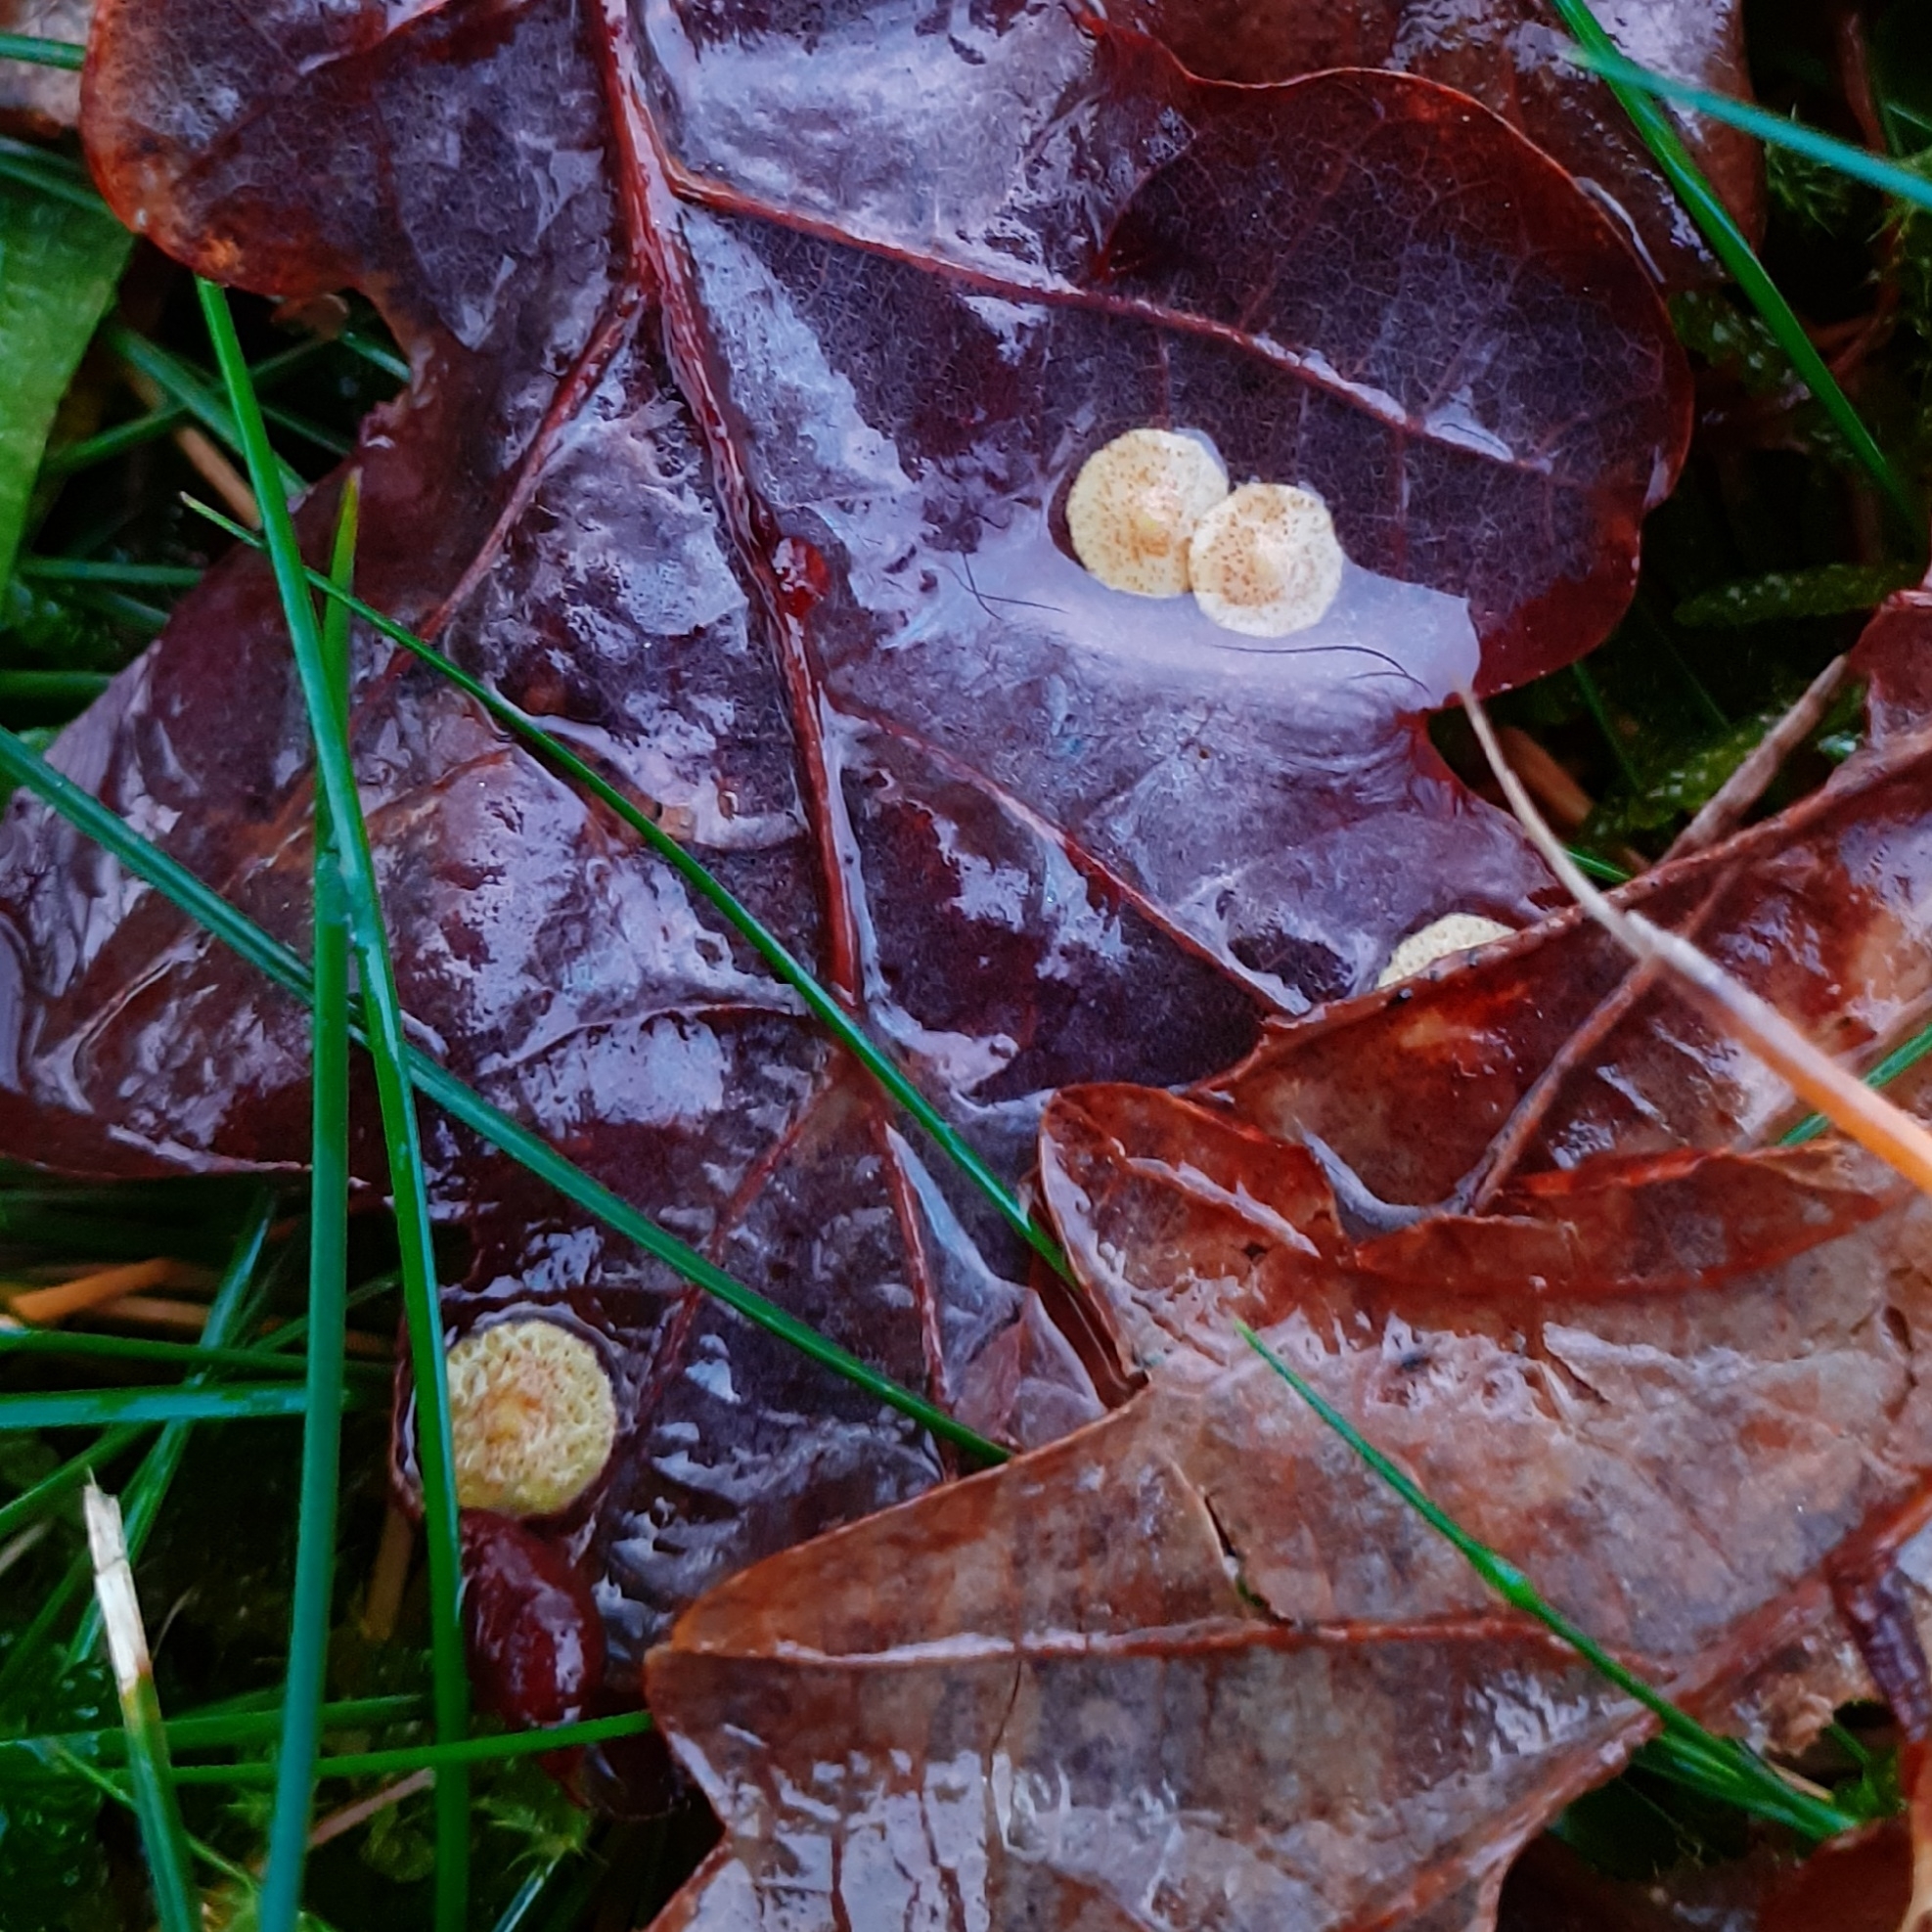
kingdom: Animalia
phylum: Arthropoda
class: Insecta
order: Hymenoptera
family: Cynipidae
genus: Neuroterus
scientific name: Neuroterus quercusbaccarum
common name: Common spangle gall
